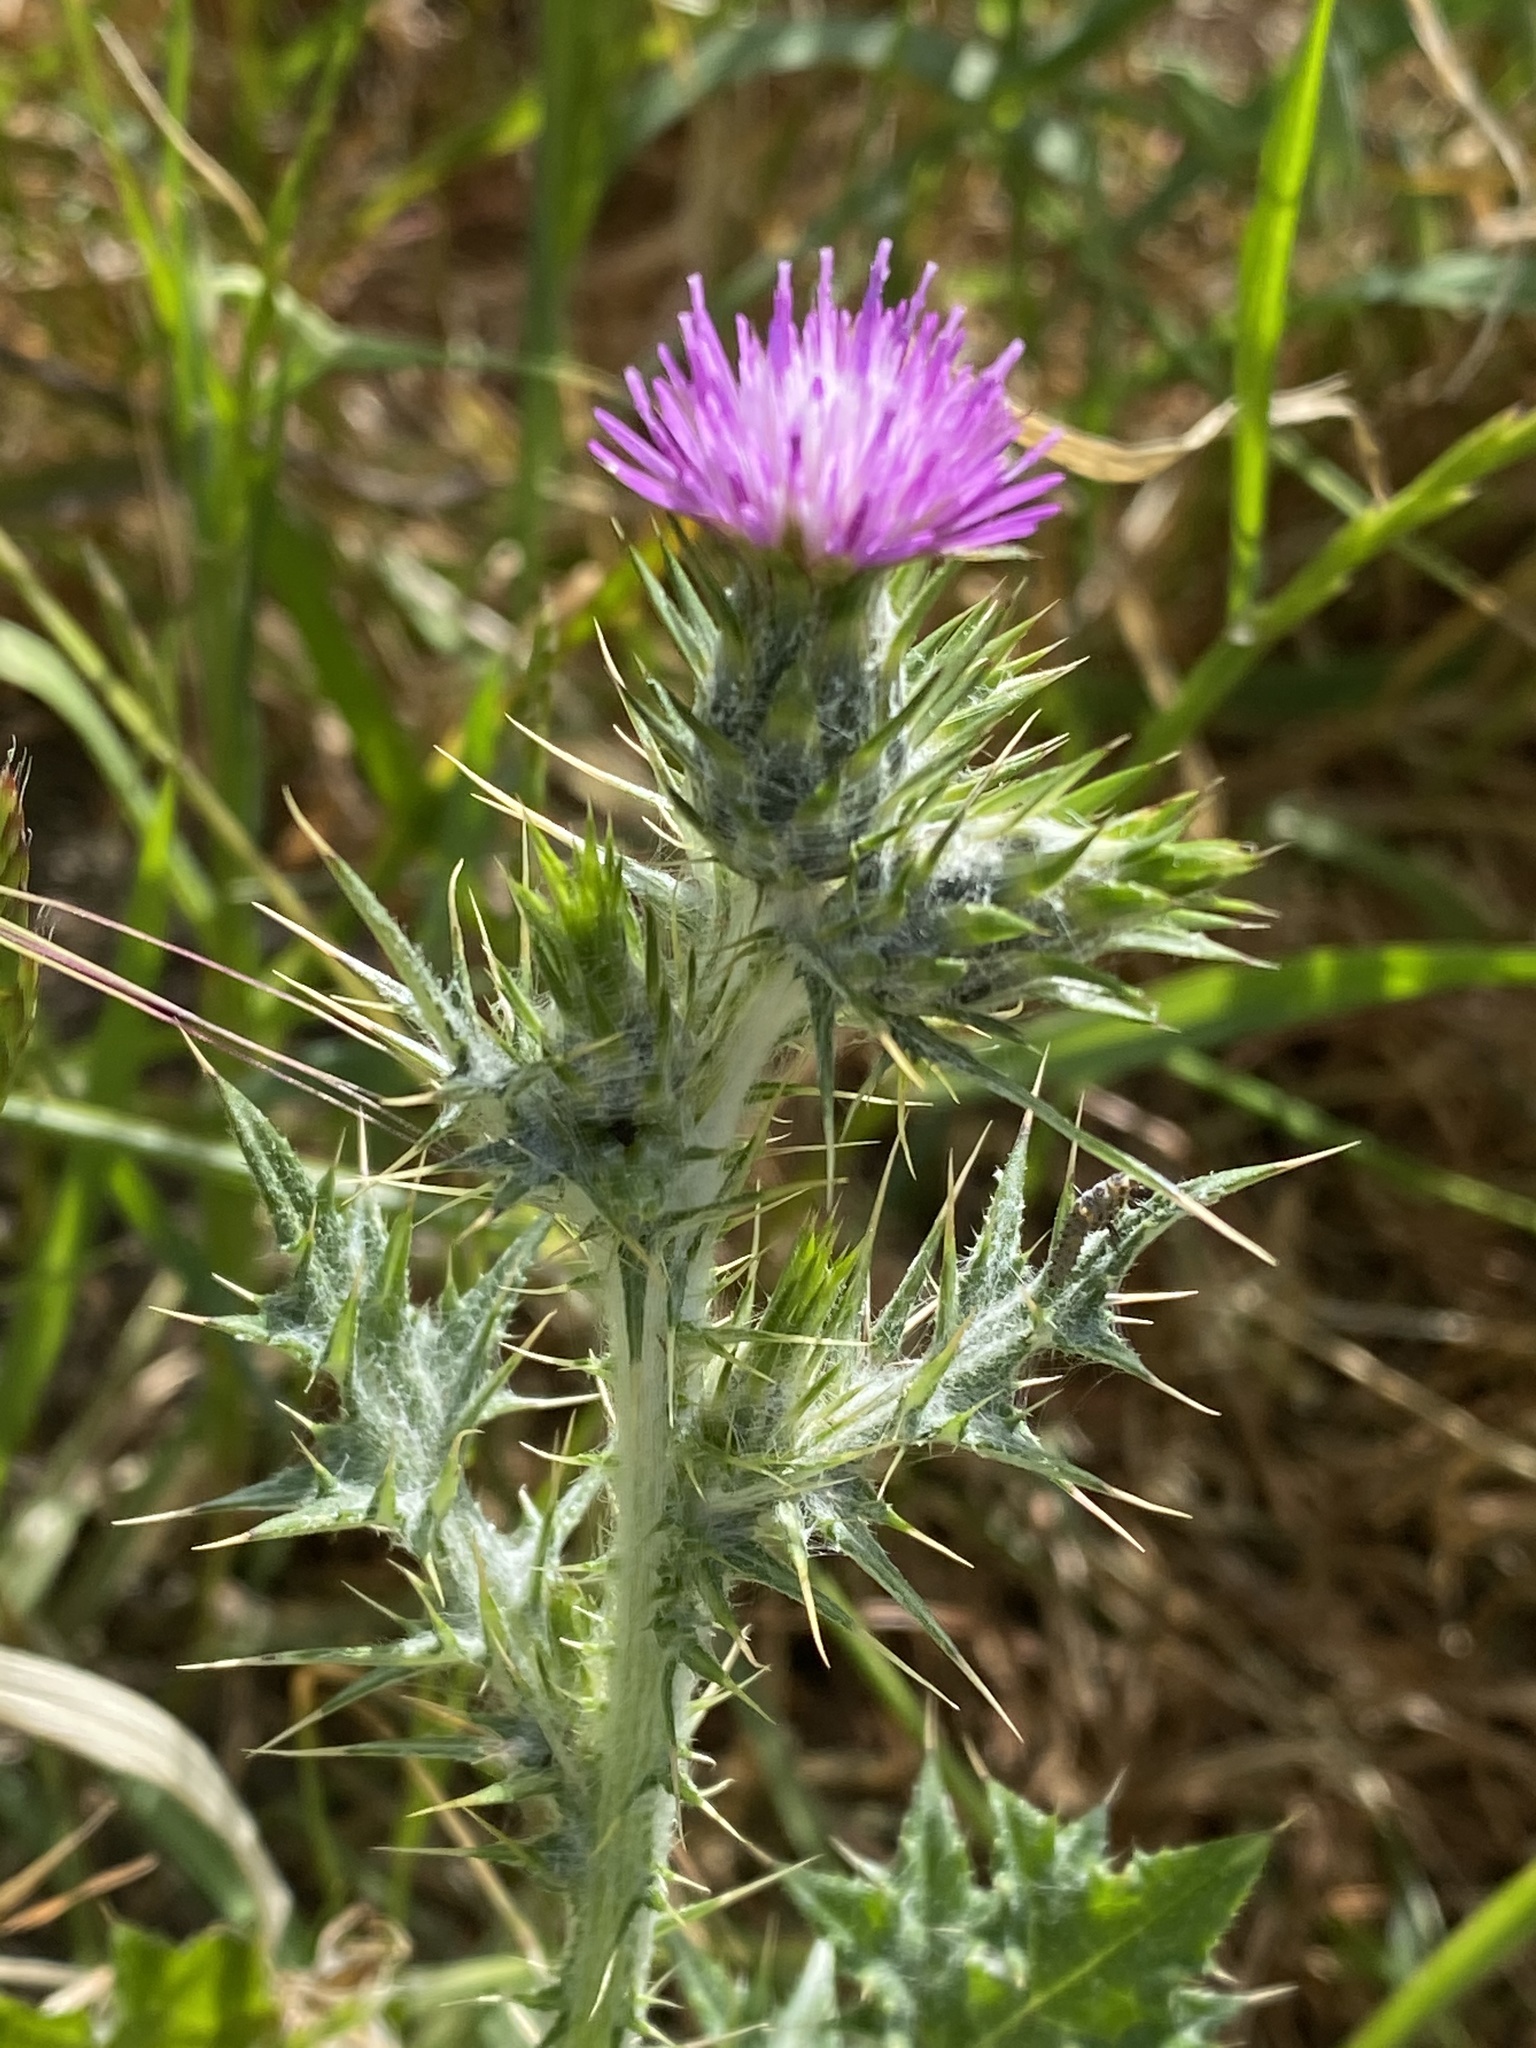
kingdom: Plantae
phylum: Tracheophyta
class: Magnoliopsida
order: Asterales
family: Asteraceae
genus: Carduus
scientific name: Carduus pycnocephalus
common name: Plymouth thistle
